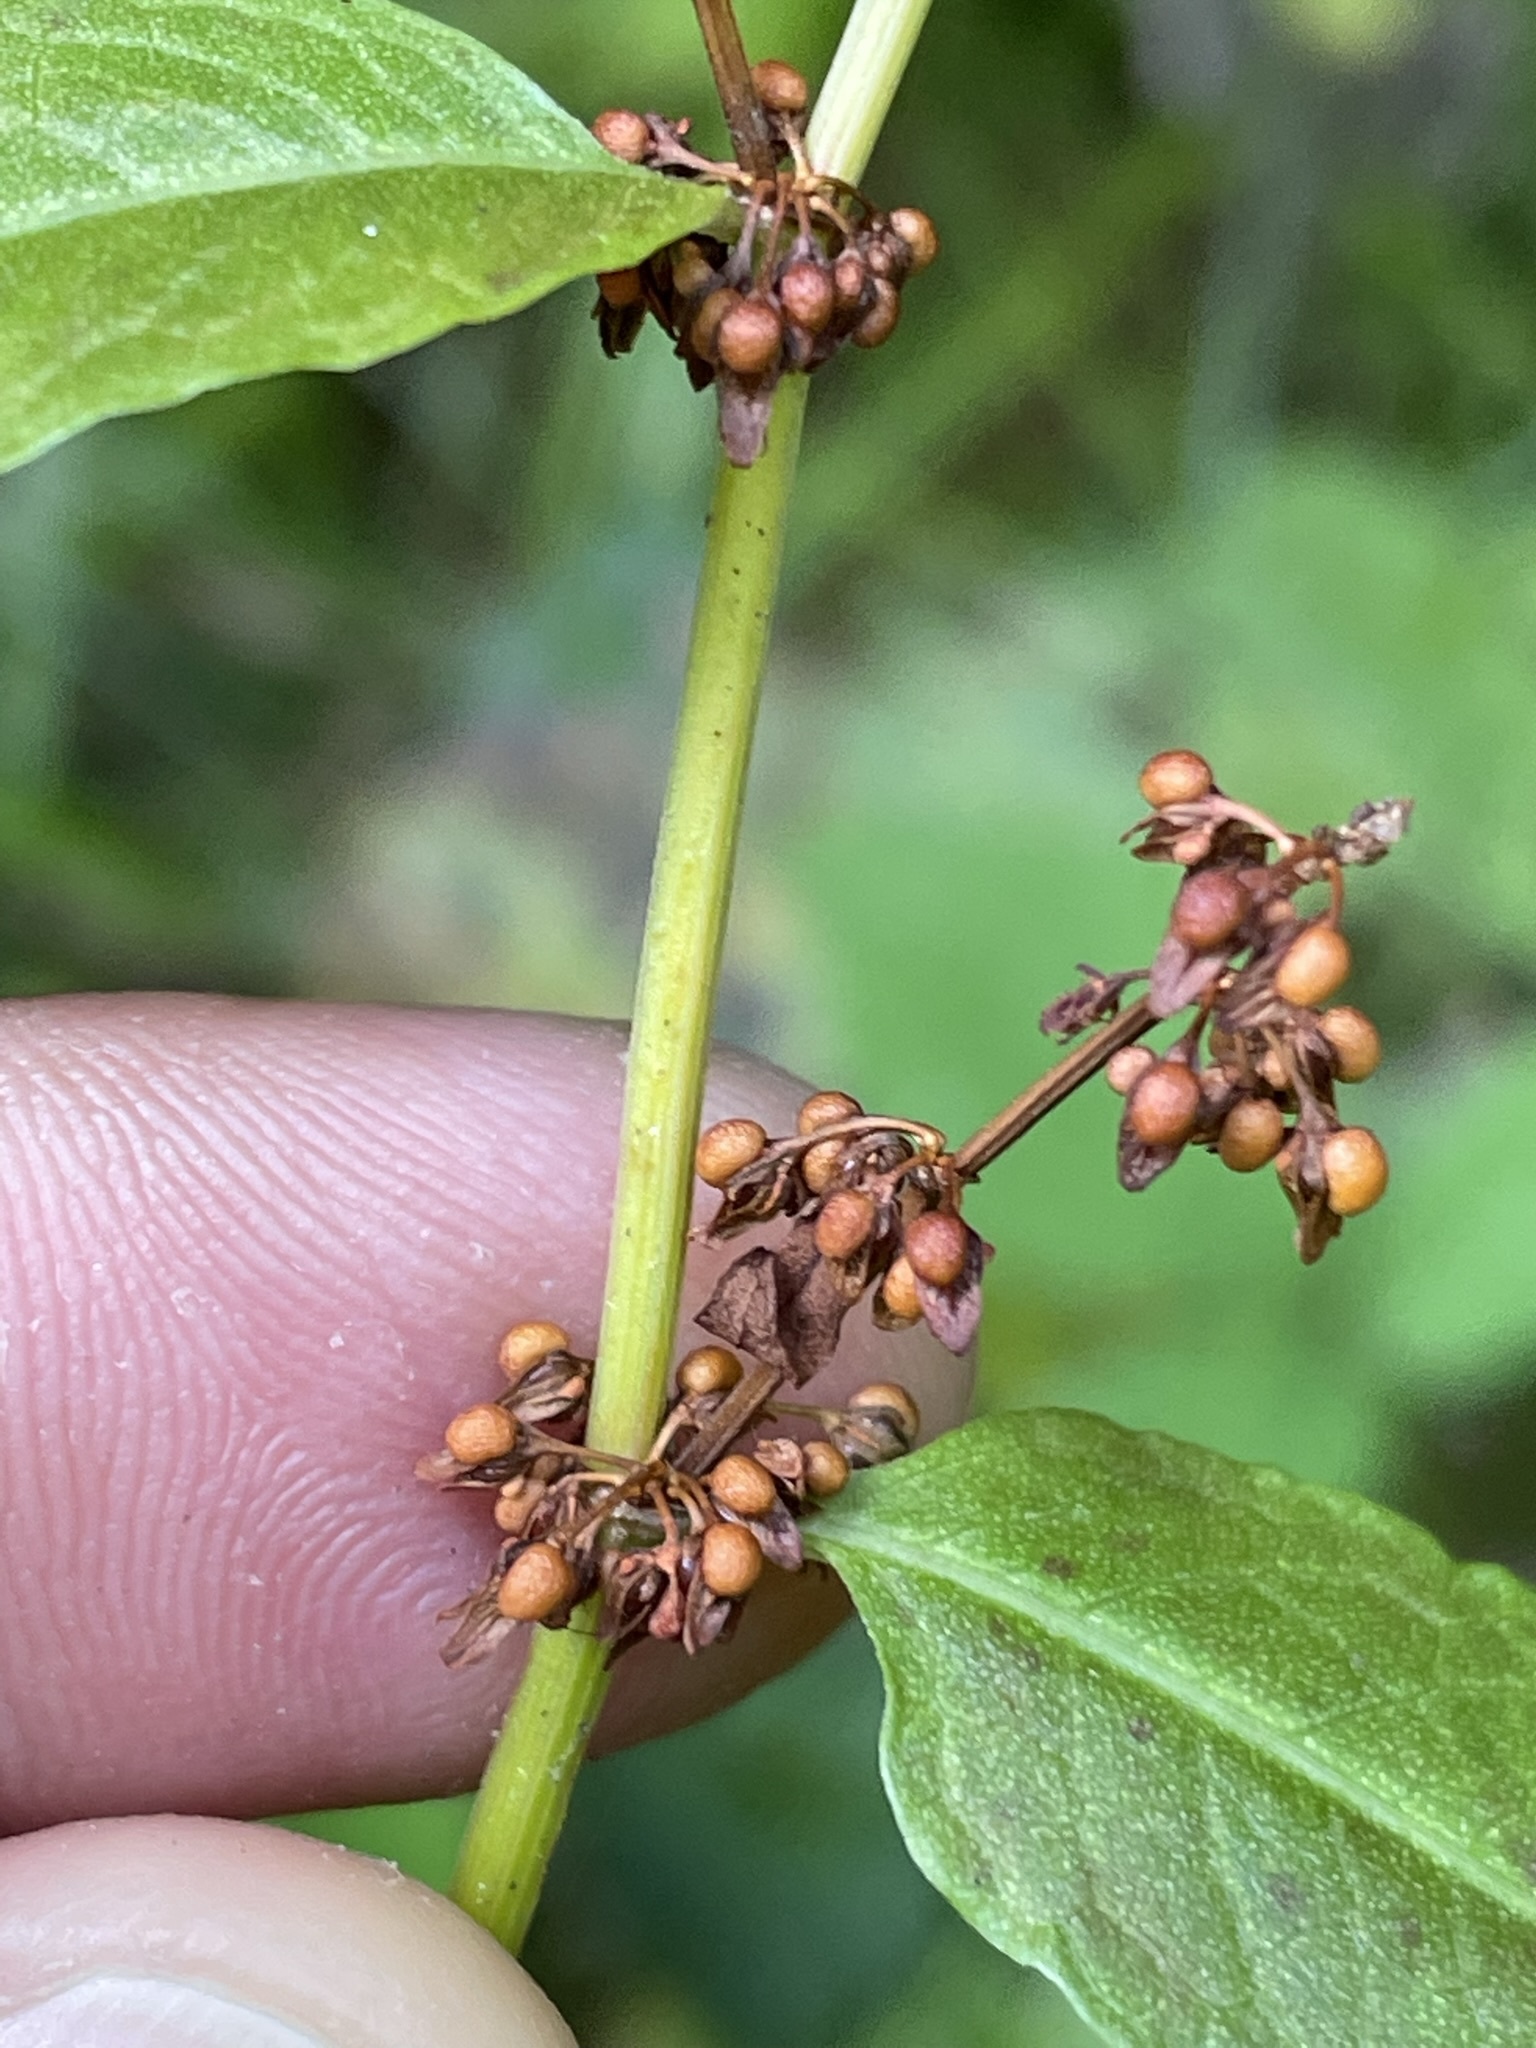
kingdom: Plantae
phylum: Tracheophyta
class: Magnoliopsida
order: Caryophyllales
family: Polygonaceae
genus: Rumex
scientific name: Rumex sanguineus
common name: Wood dock
